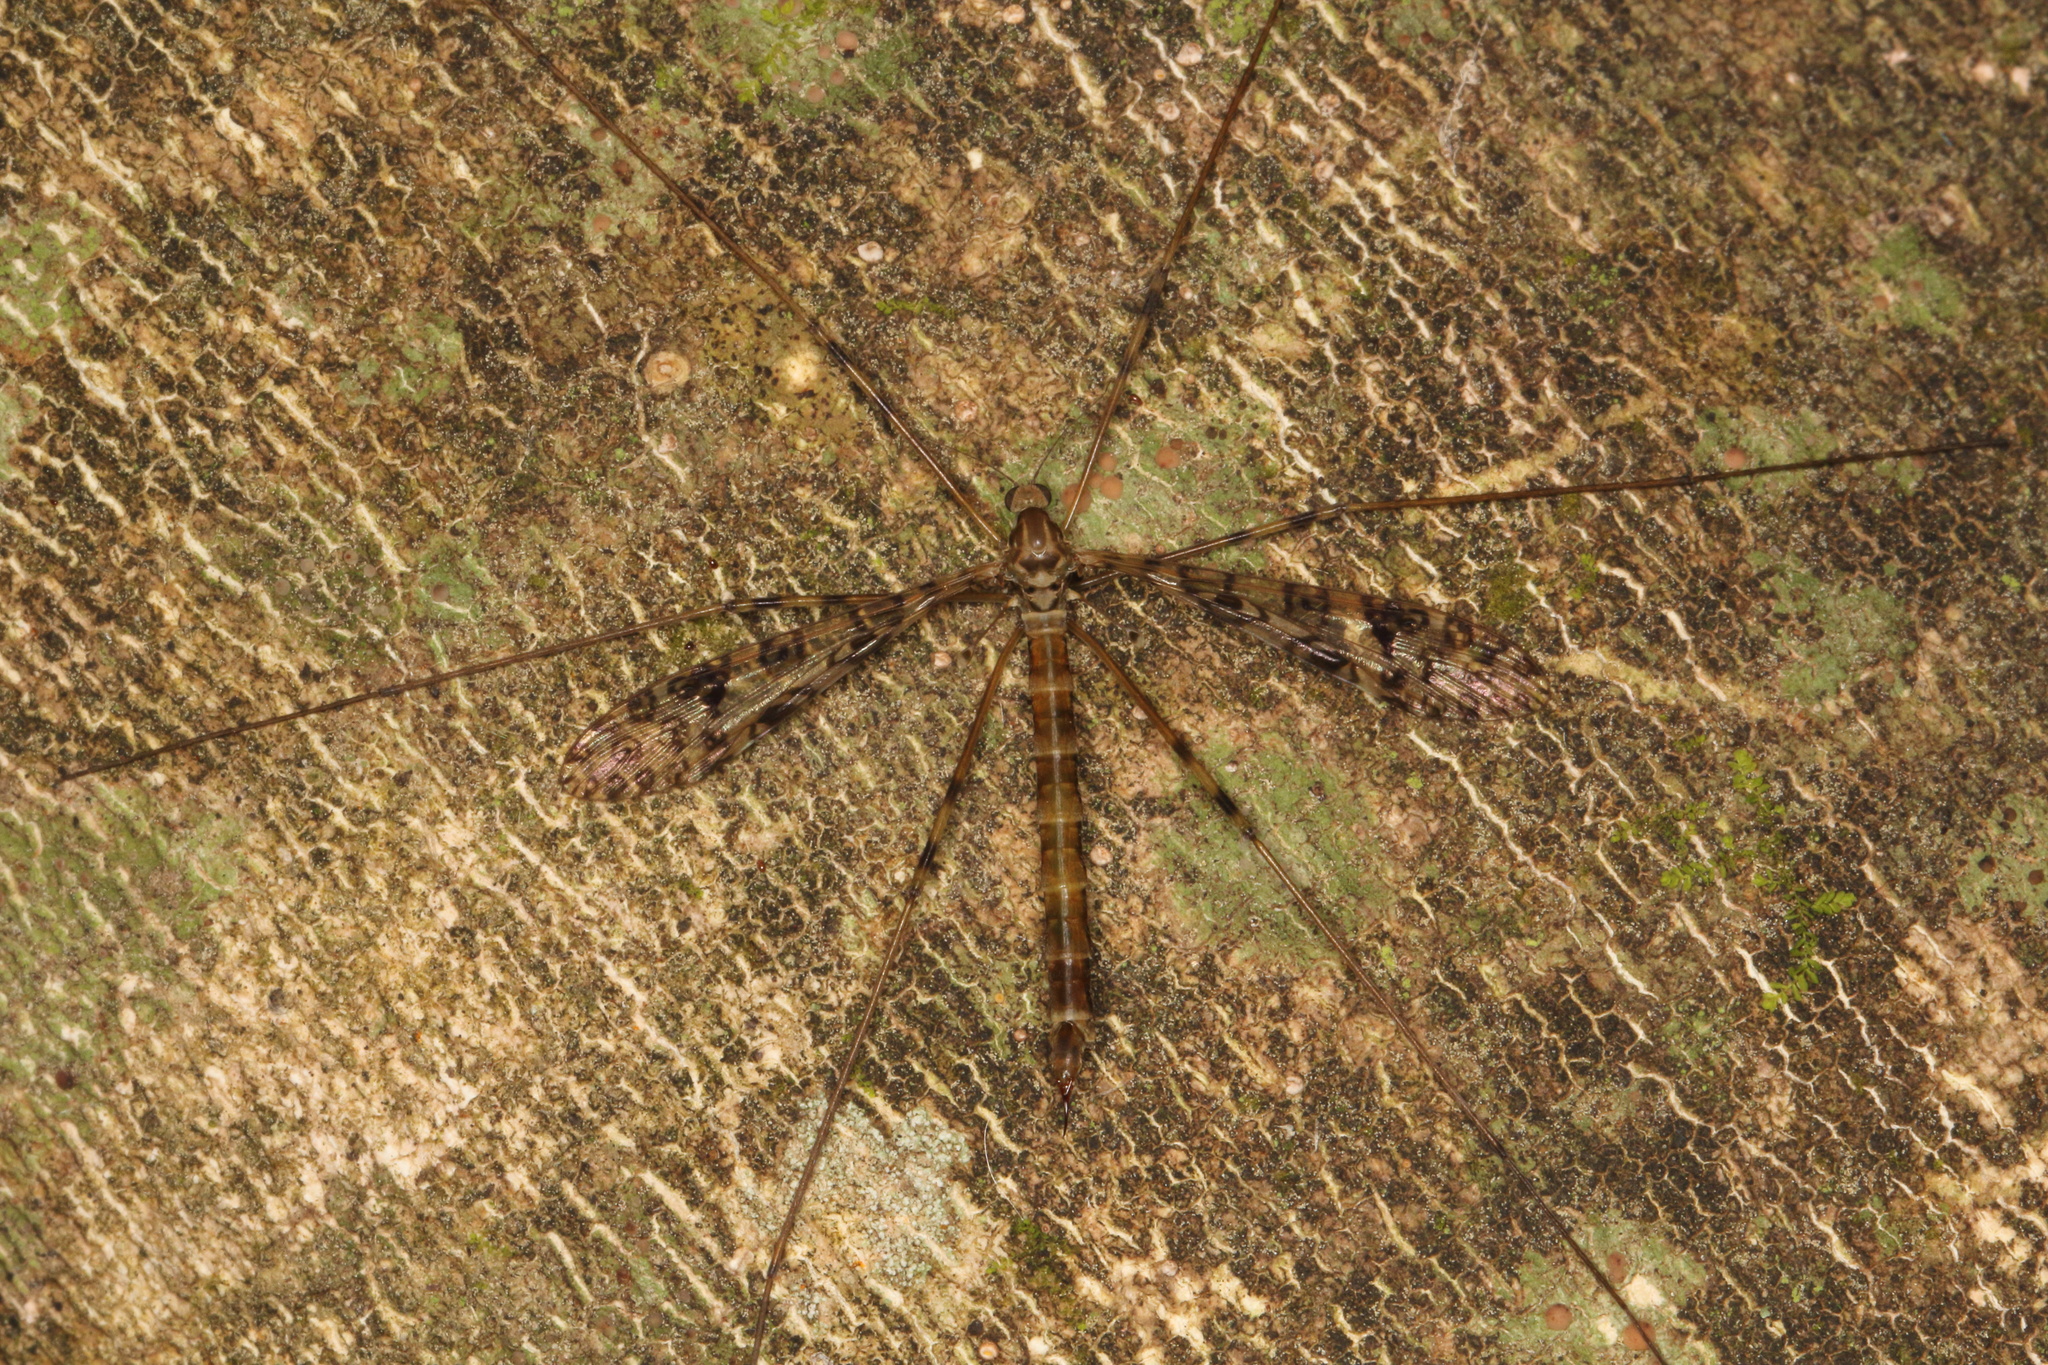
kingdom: Animalia
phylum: Arthropoda
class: Insecta
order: Diptera
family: Limoniidae
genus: Austrolimnophila
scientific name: Austrolimnophila argus
